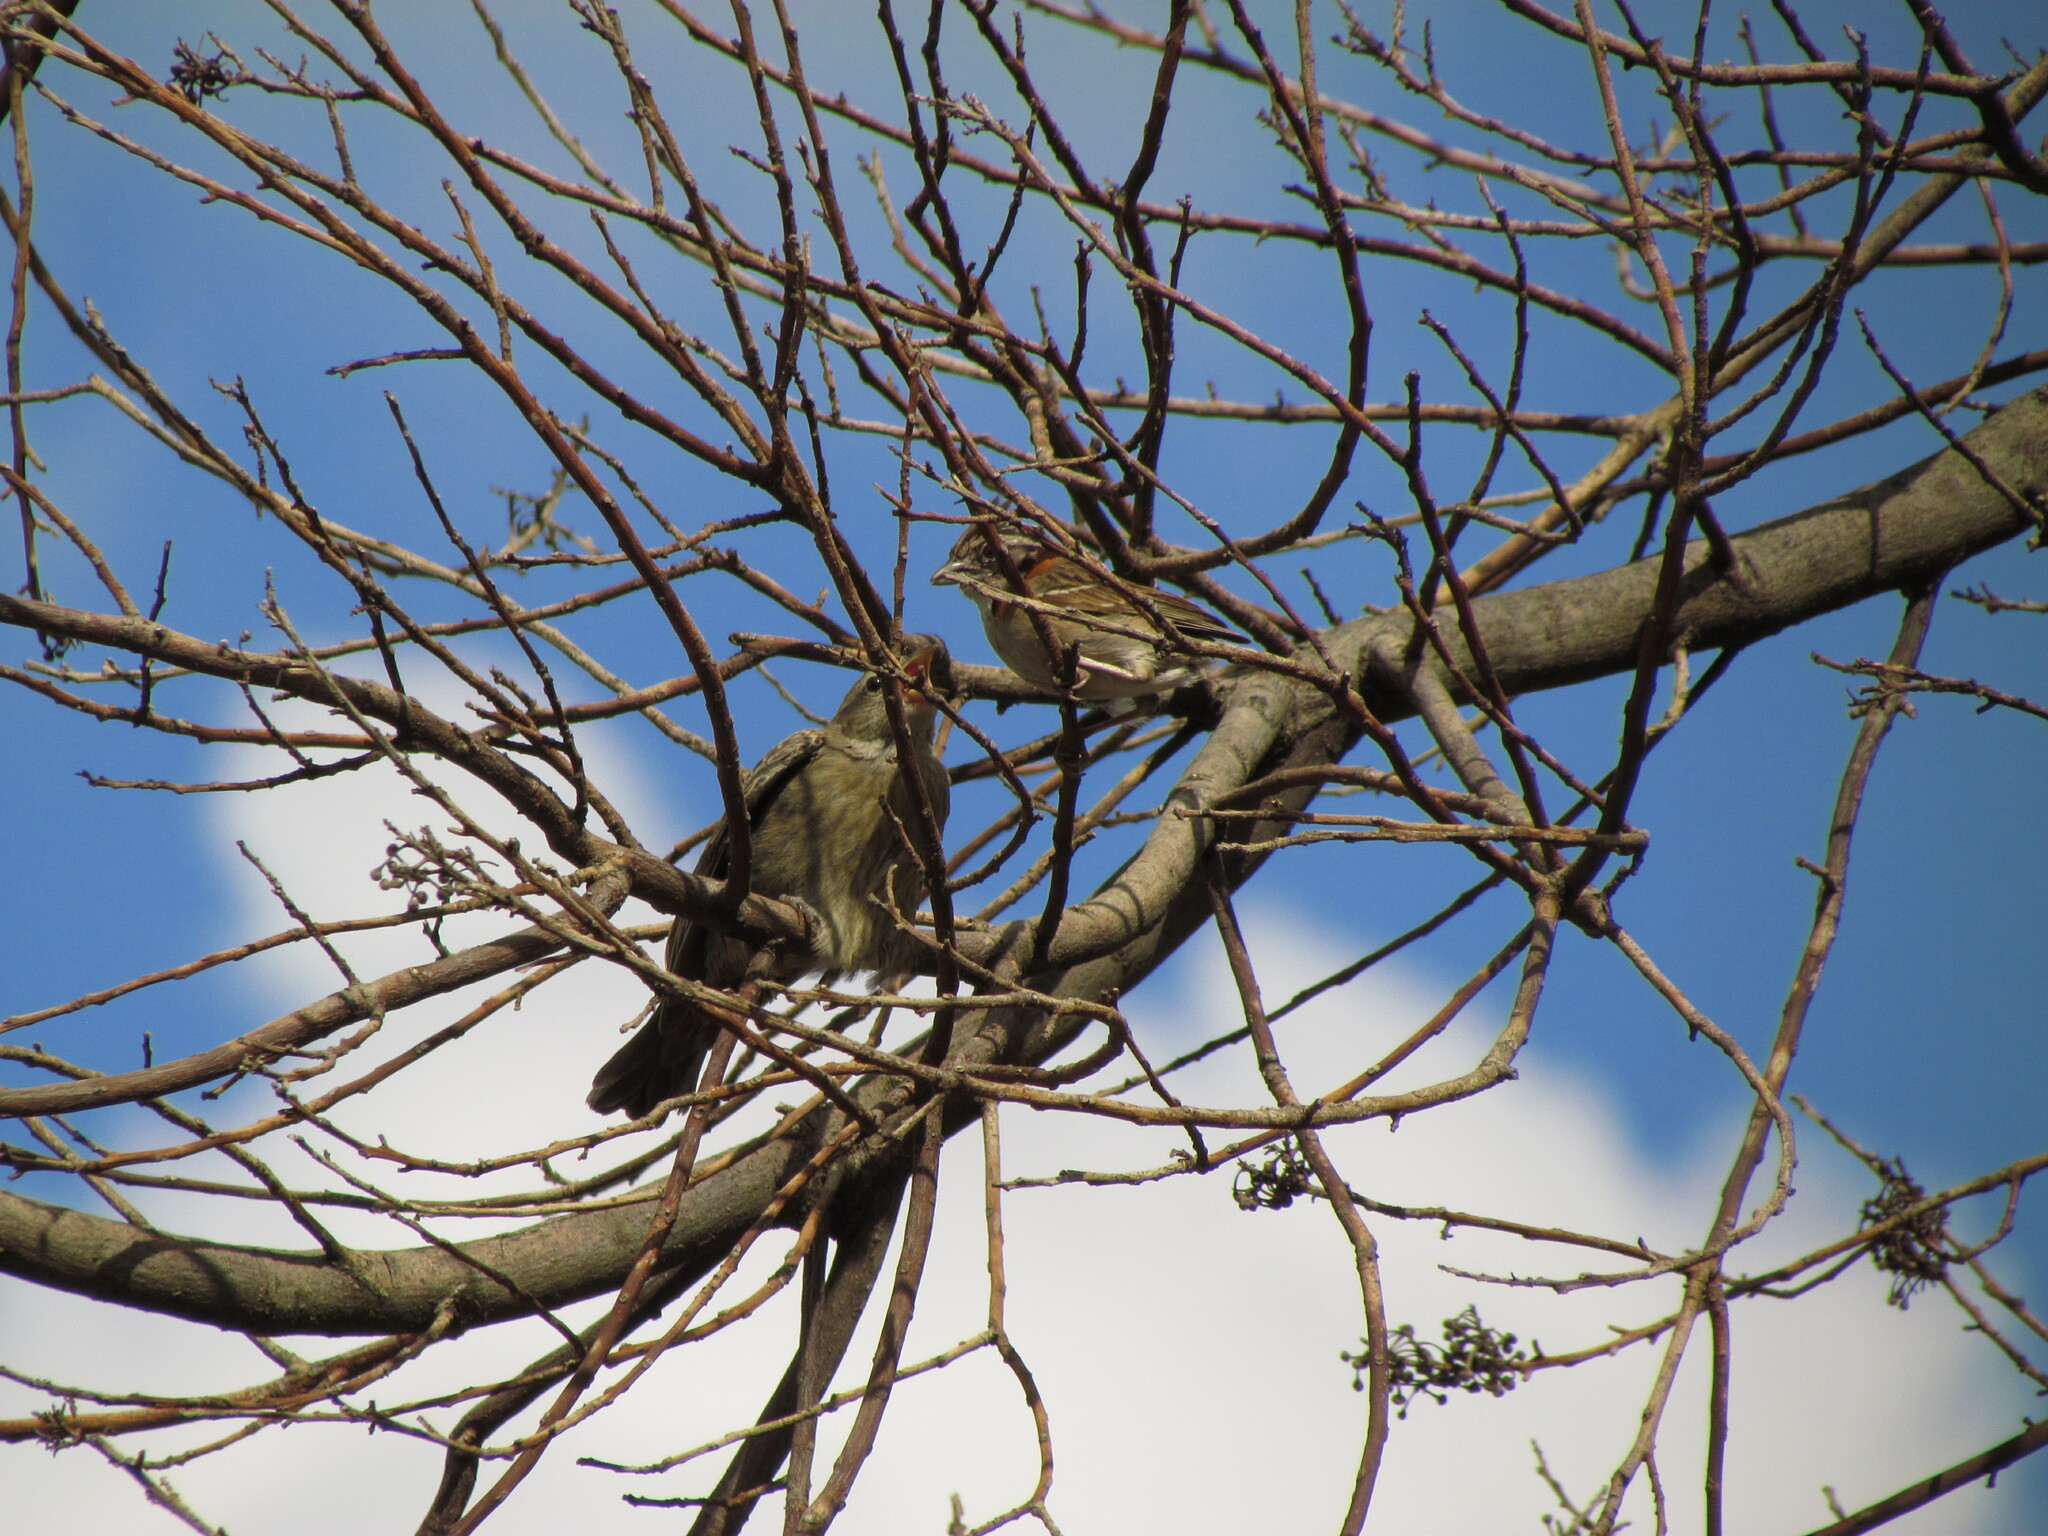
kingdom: Animalia
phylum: Chordata
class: Aves
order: Passeriformes
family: Icteridae
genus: Molothrus
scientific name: Molothrus bonariensis
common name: Shiny cowbird
